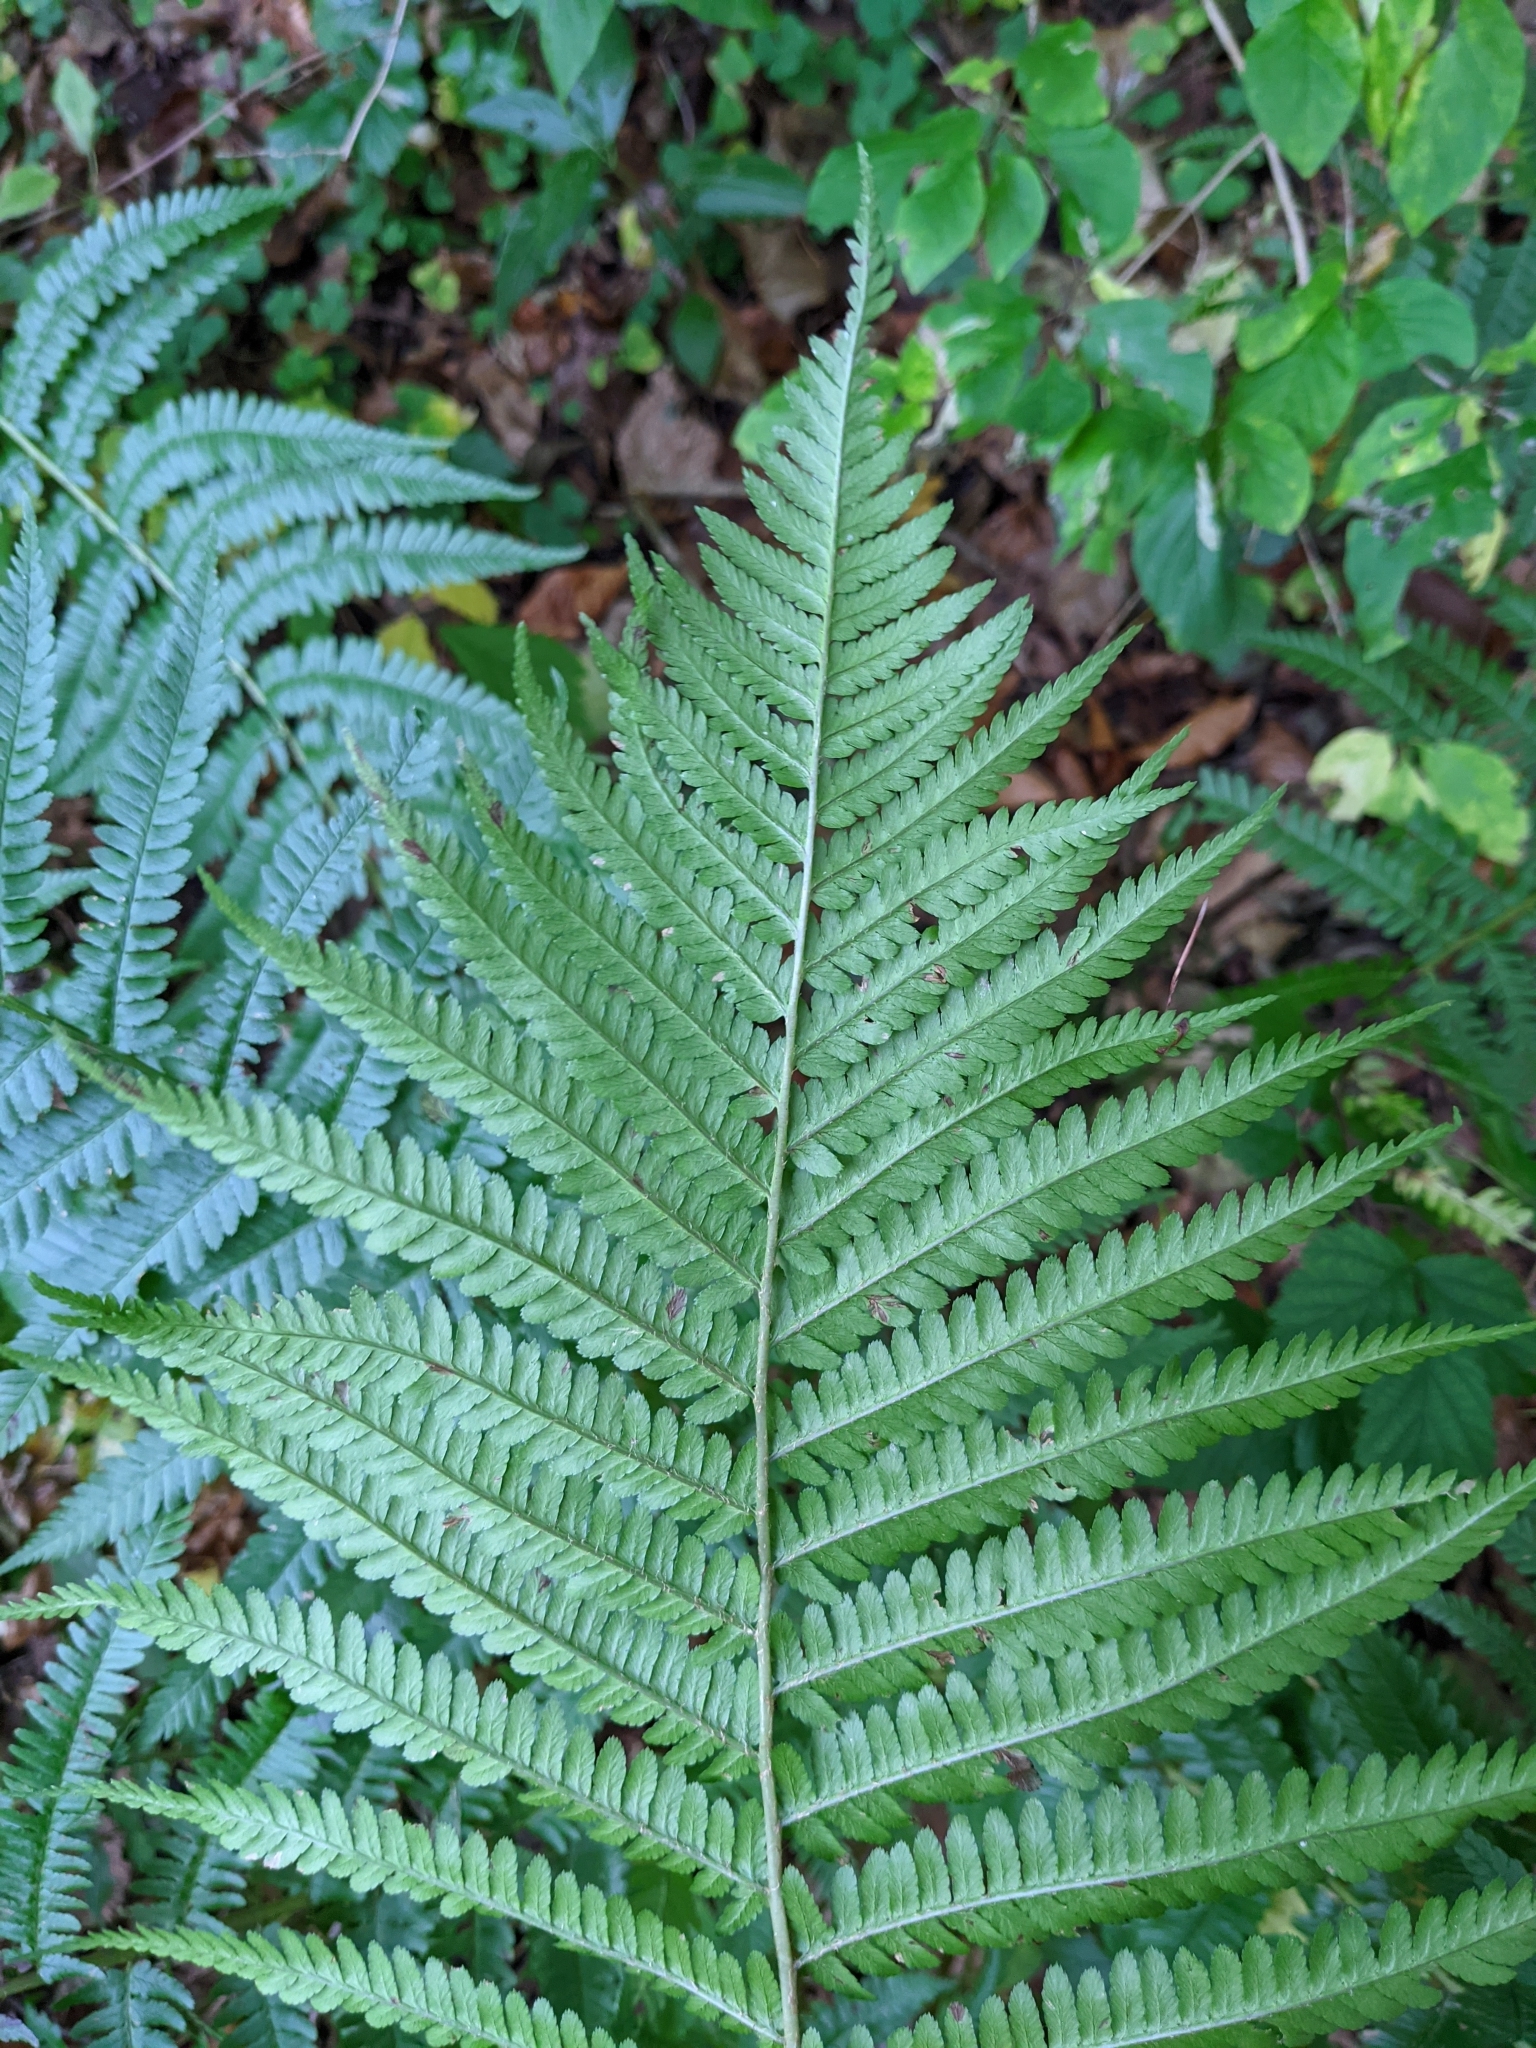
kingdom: Plantae
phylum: Tracheophyta
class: Polypodiopsida
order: Polypodiales
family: Dryopteridaceae
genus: Dryopteris
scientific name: Dryopteris filix-mas
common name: Male fern
